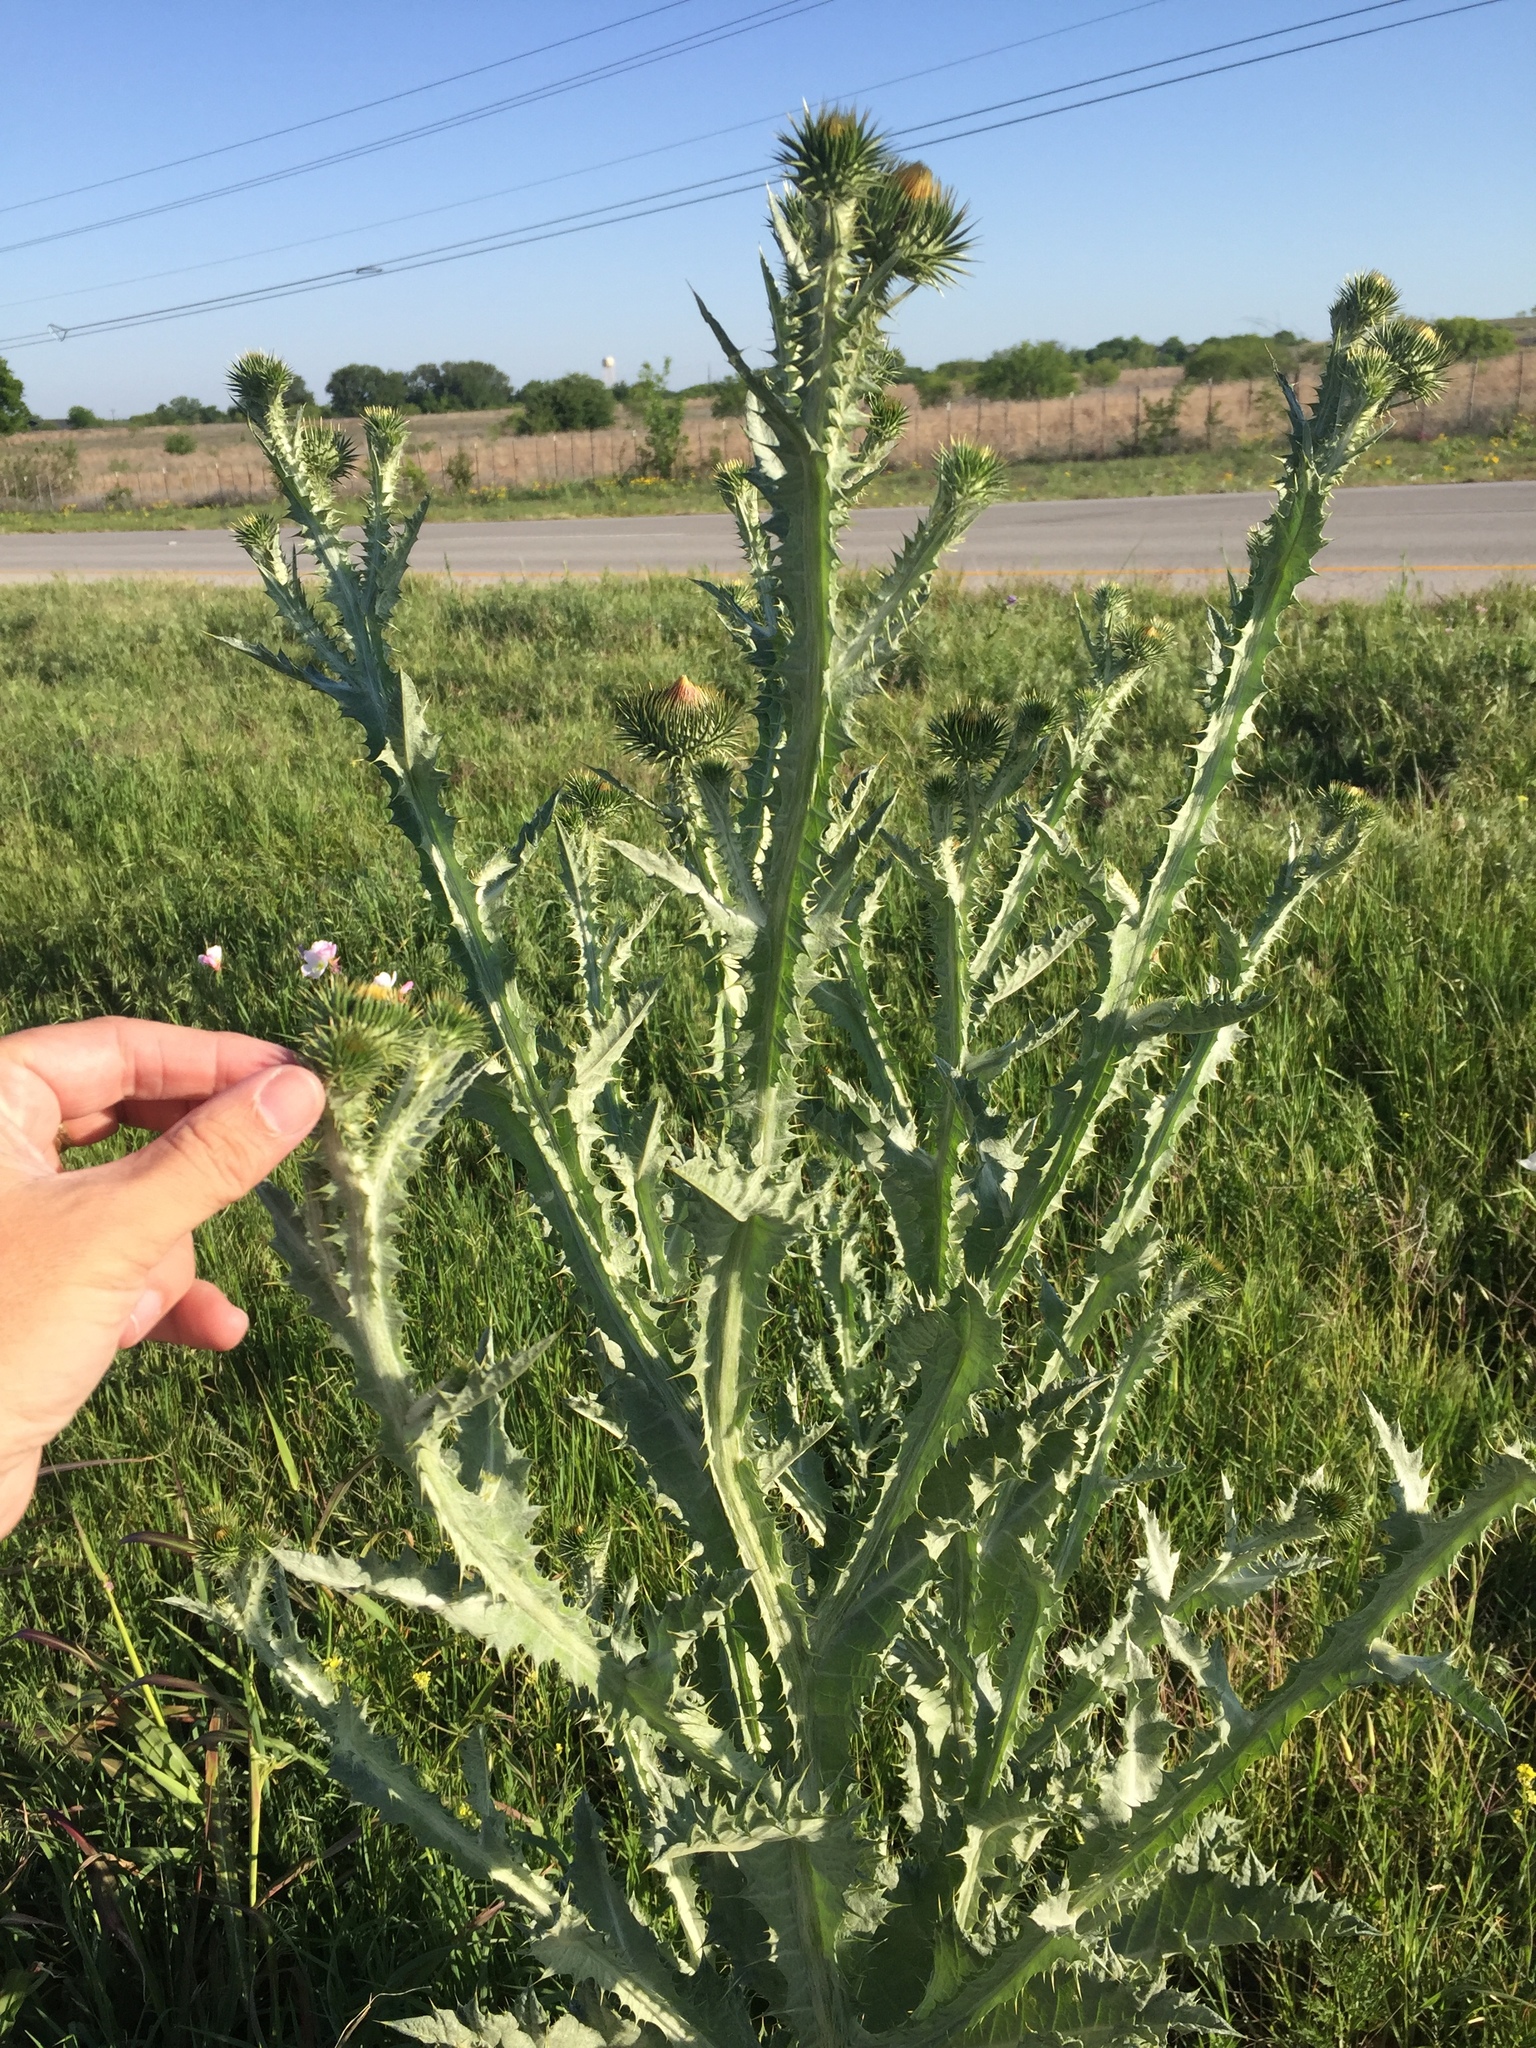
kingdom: Plantae
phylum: Tracheophyta
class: Magnoliopsida
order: Asterales
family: Asteraceae
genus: Onopordum
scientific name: Onopordum acanthium
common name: Scotch thistle
